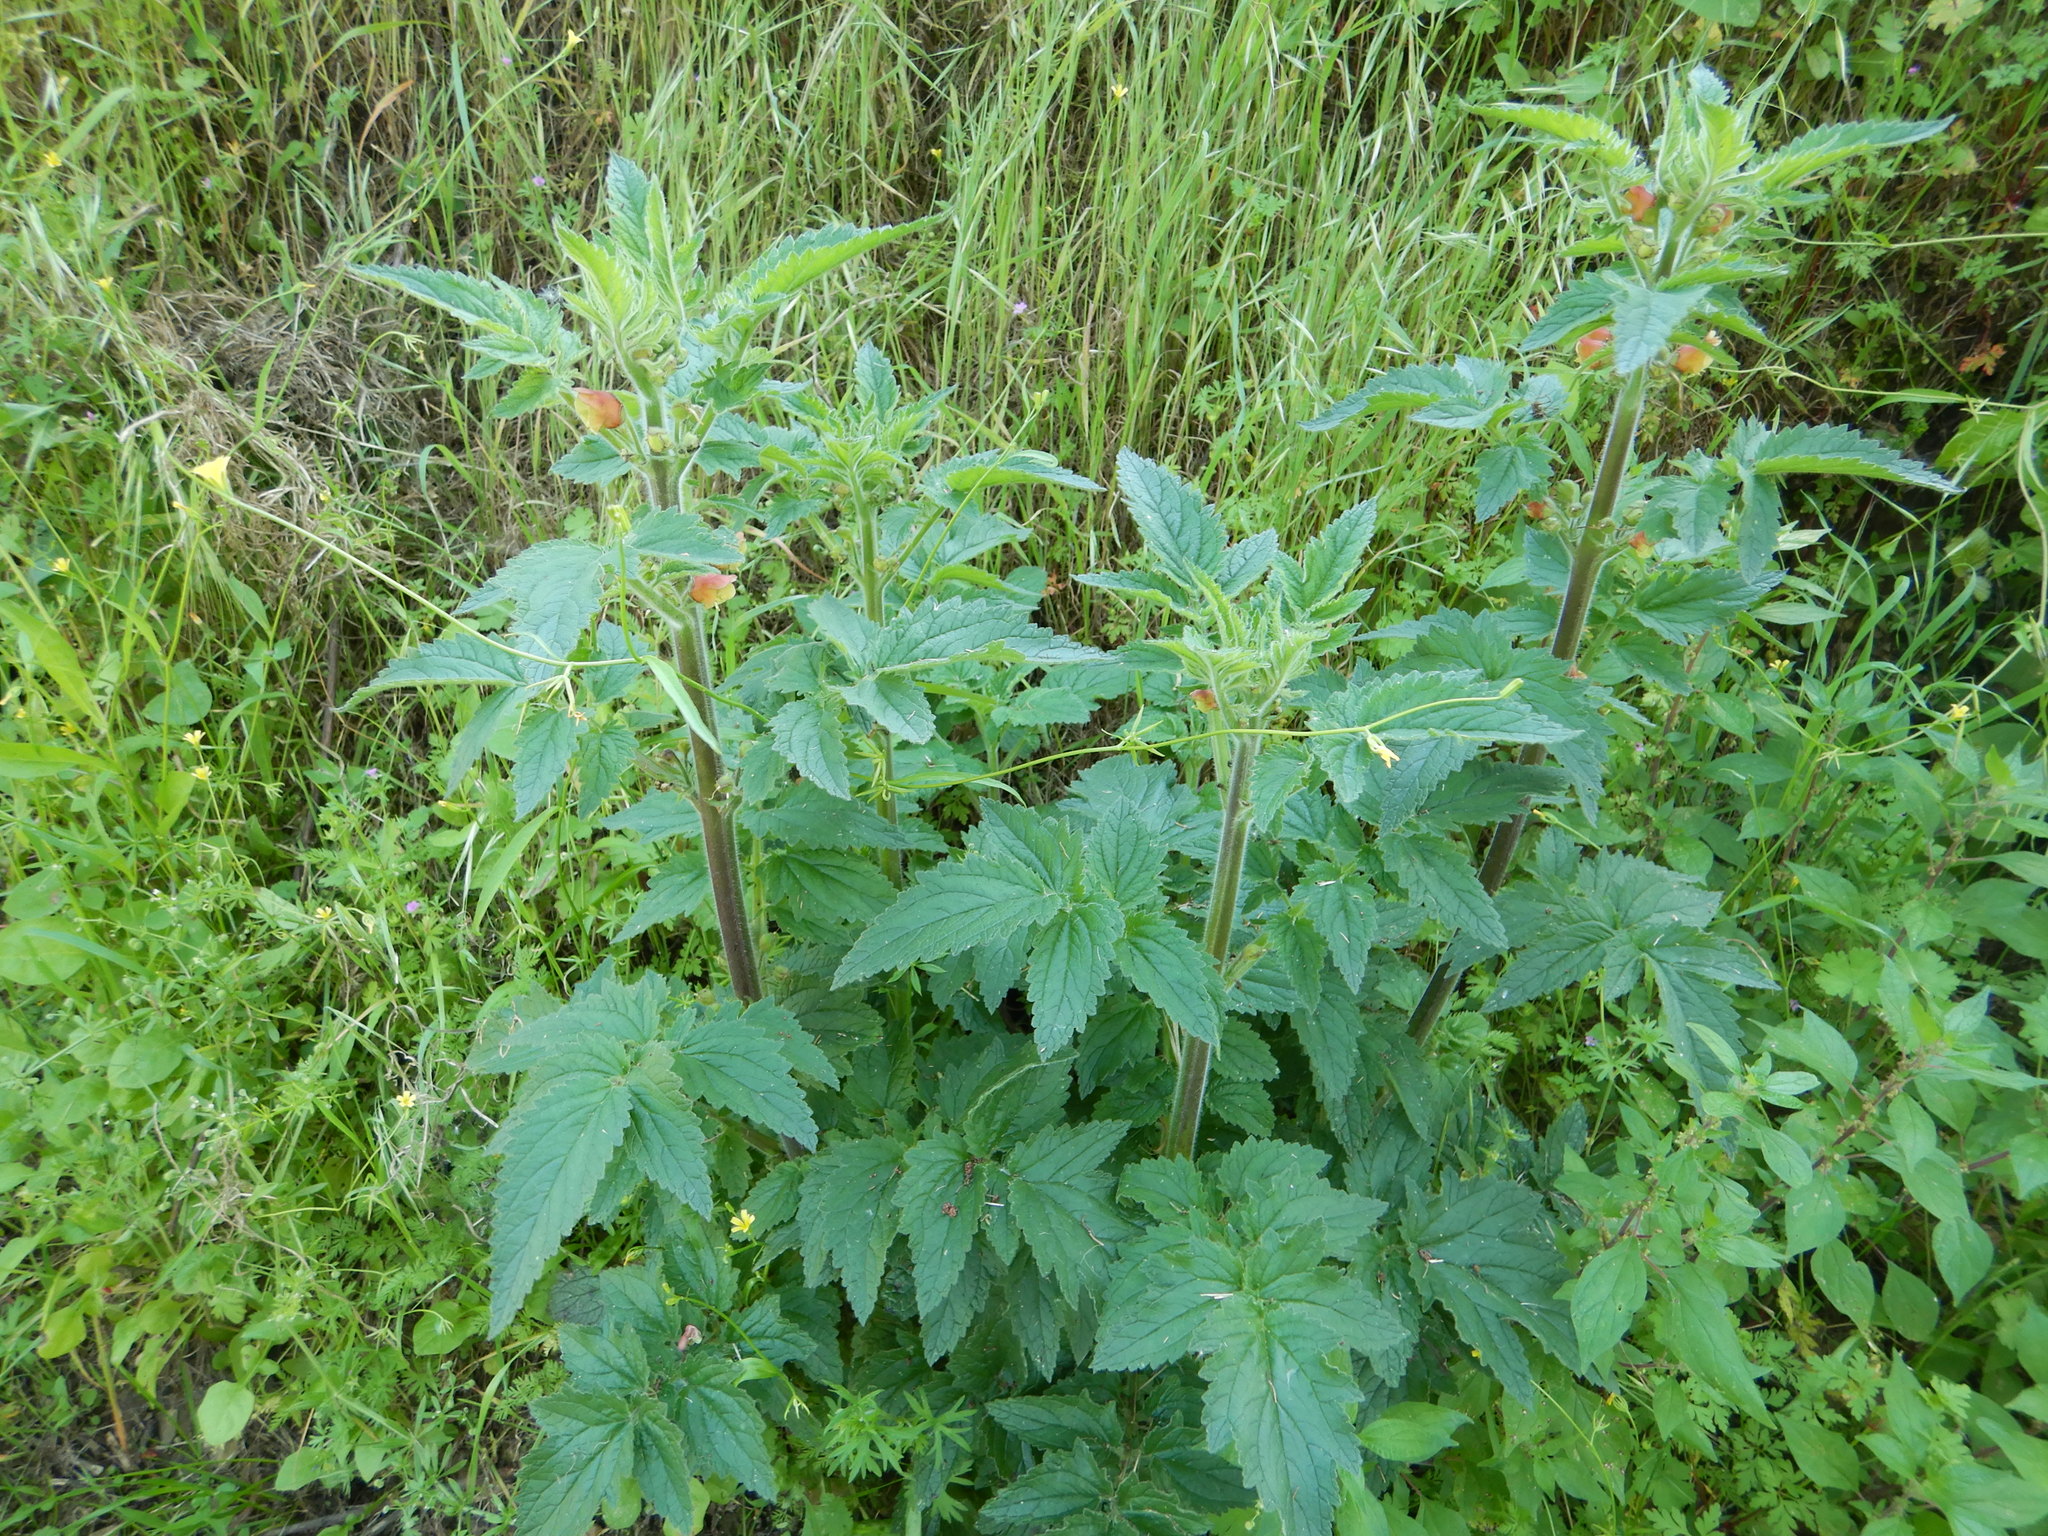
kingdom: Plantae
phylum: Tracheophyta
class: Magnoliopsida
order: Lamiales
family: Scrophulariaceae
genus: Scrophularia
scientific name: Scrophularia grandiflora
